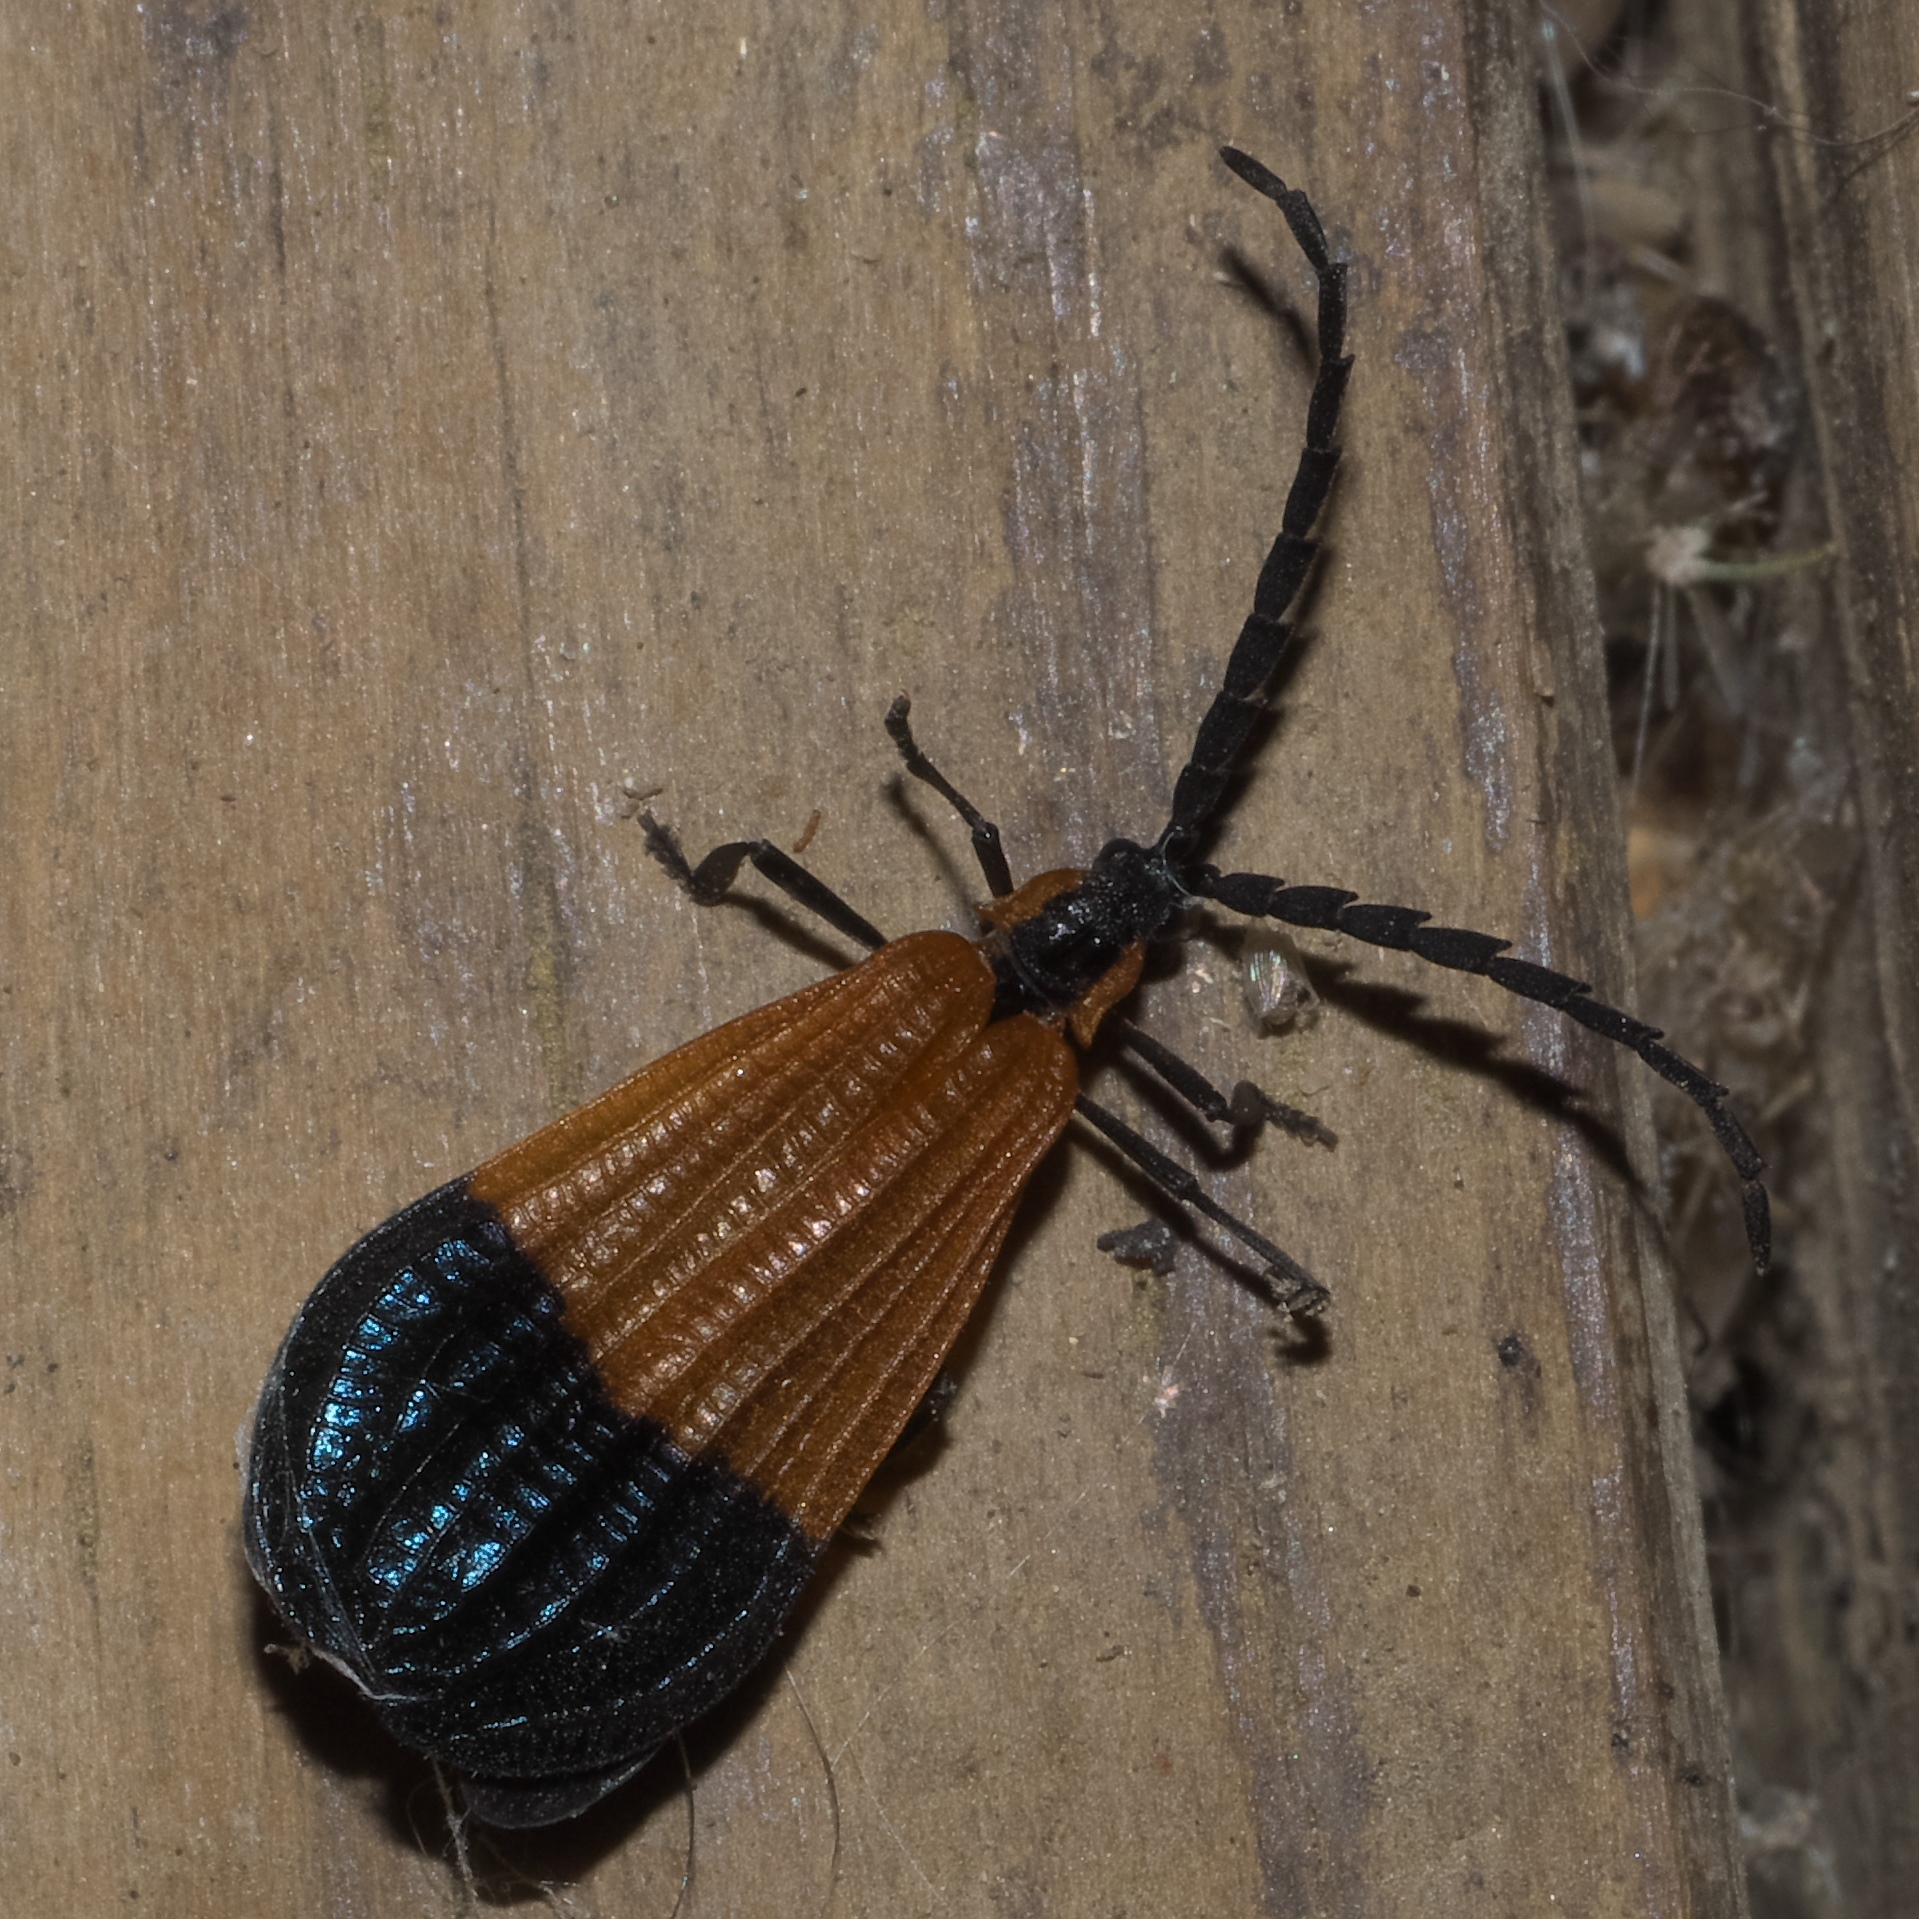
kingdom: Animalia
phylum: Arthropoda
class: Insecta
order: Coleoptera
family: Lycidae
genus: Calopteron
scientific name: Calopteron terminale
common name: End band net-winged beetle
